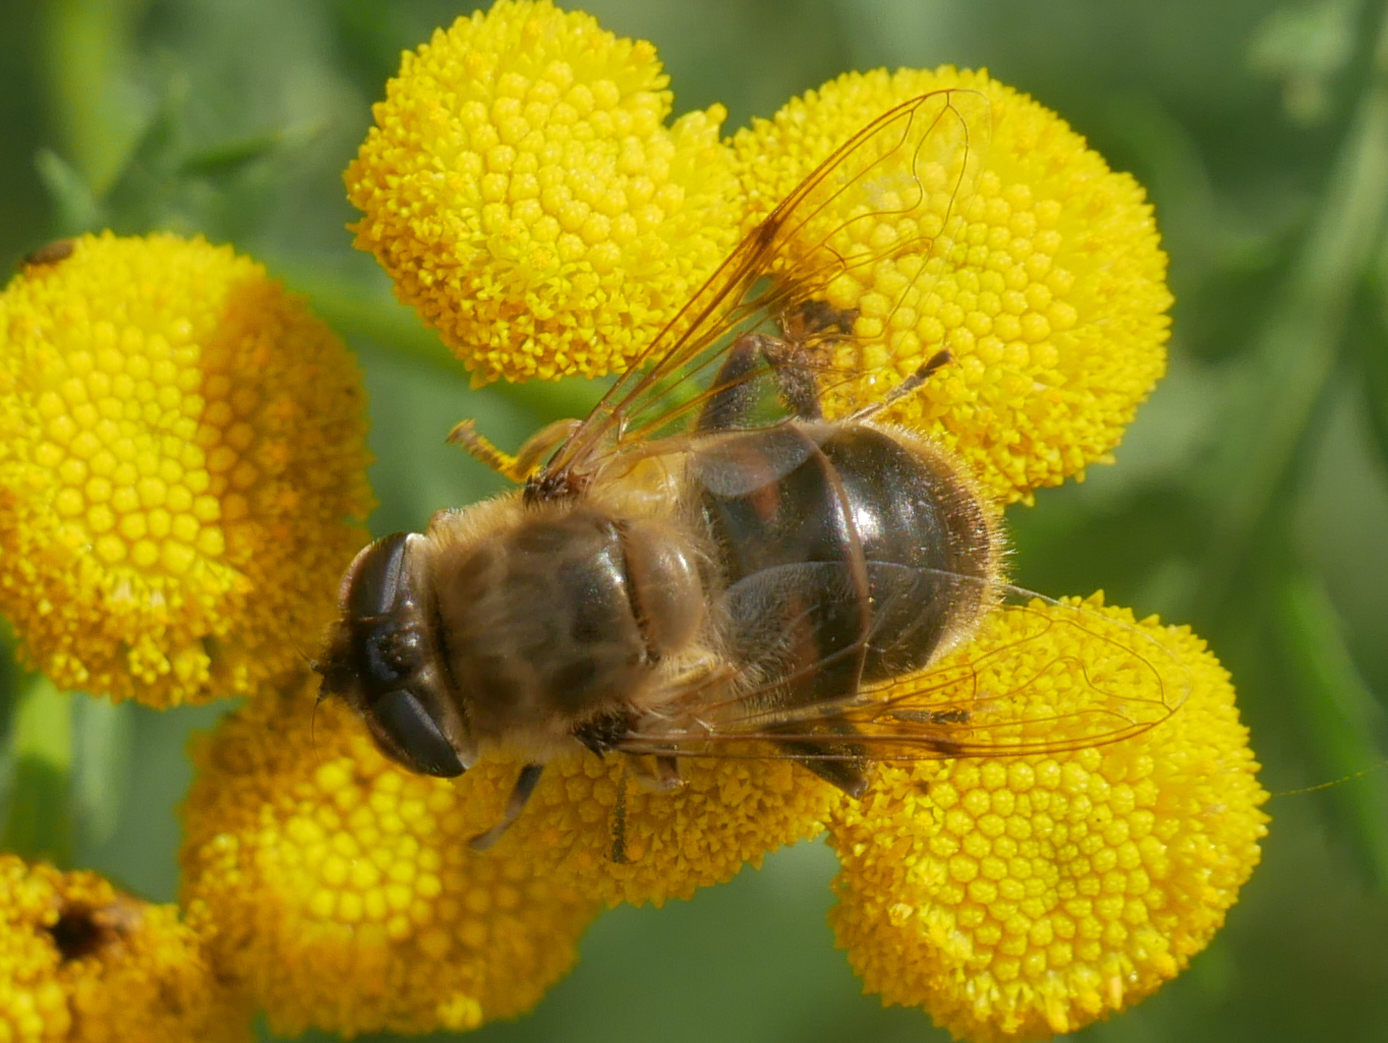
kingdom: Animalia
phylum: Arthropoda
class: Insecta
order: Diptera
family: Syrphidae
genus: Eristalis
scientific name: Eristalis tenax
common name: Drone fly
